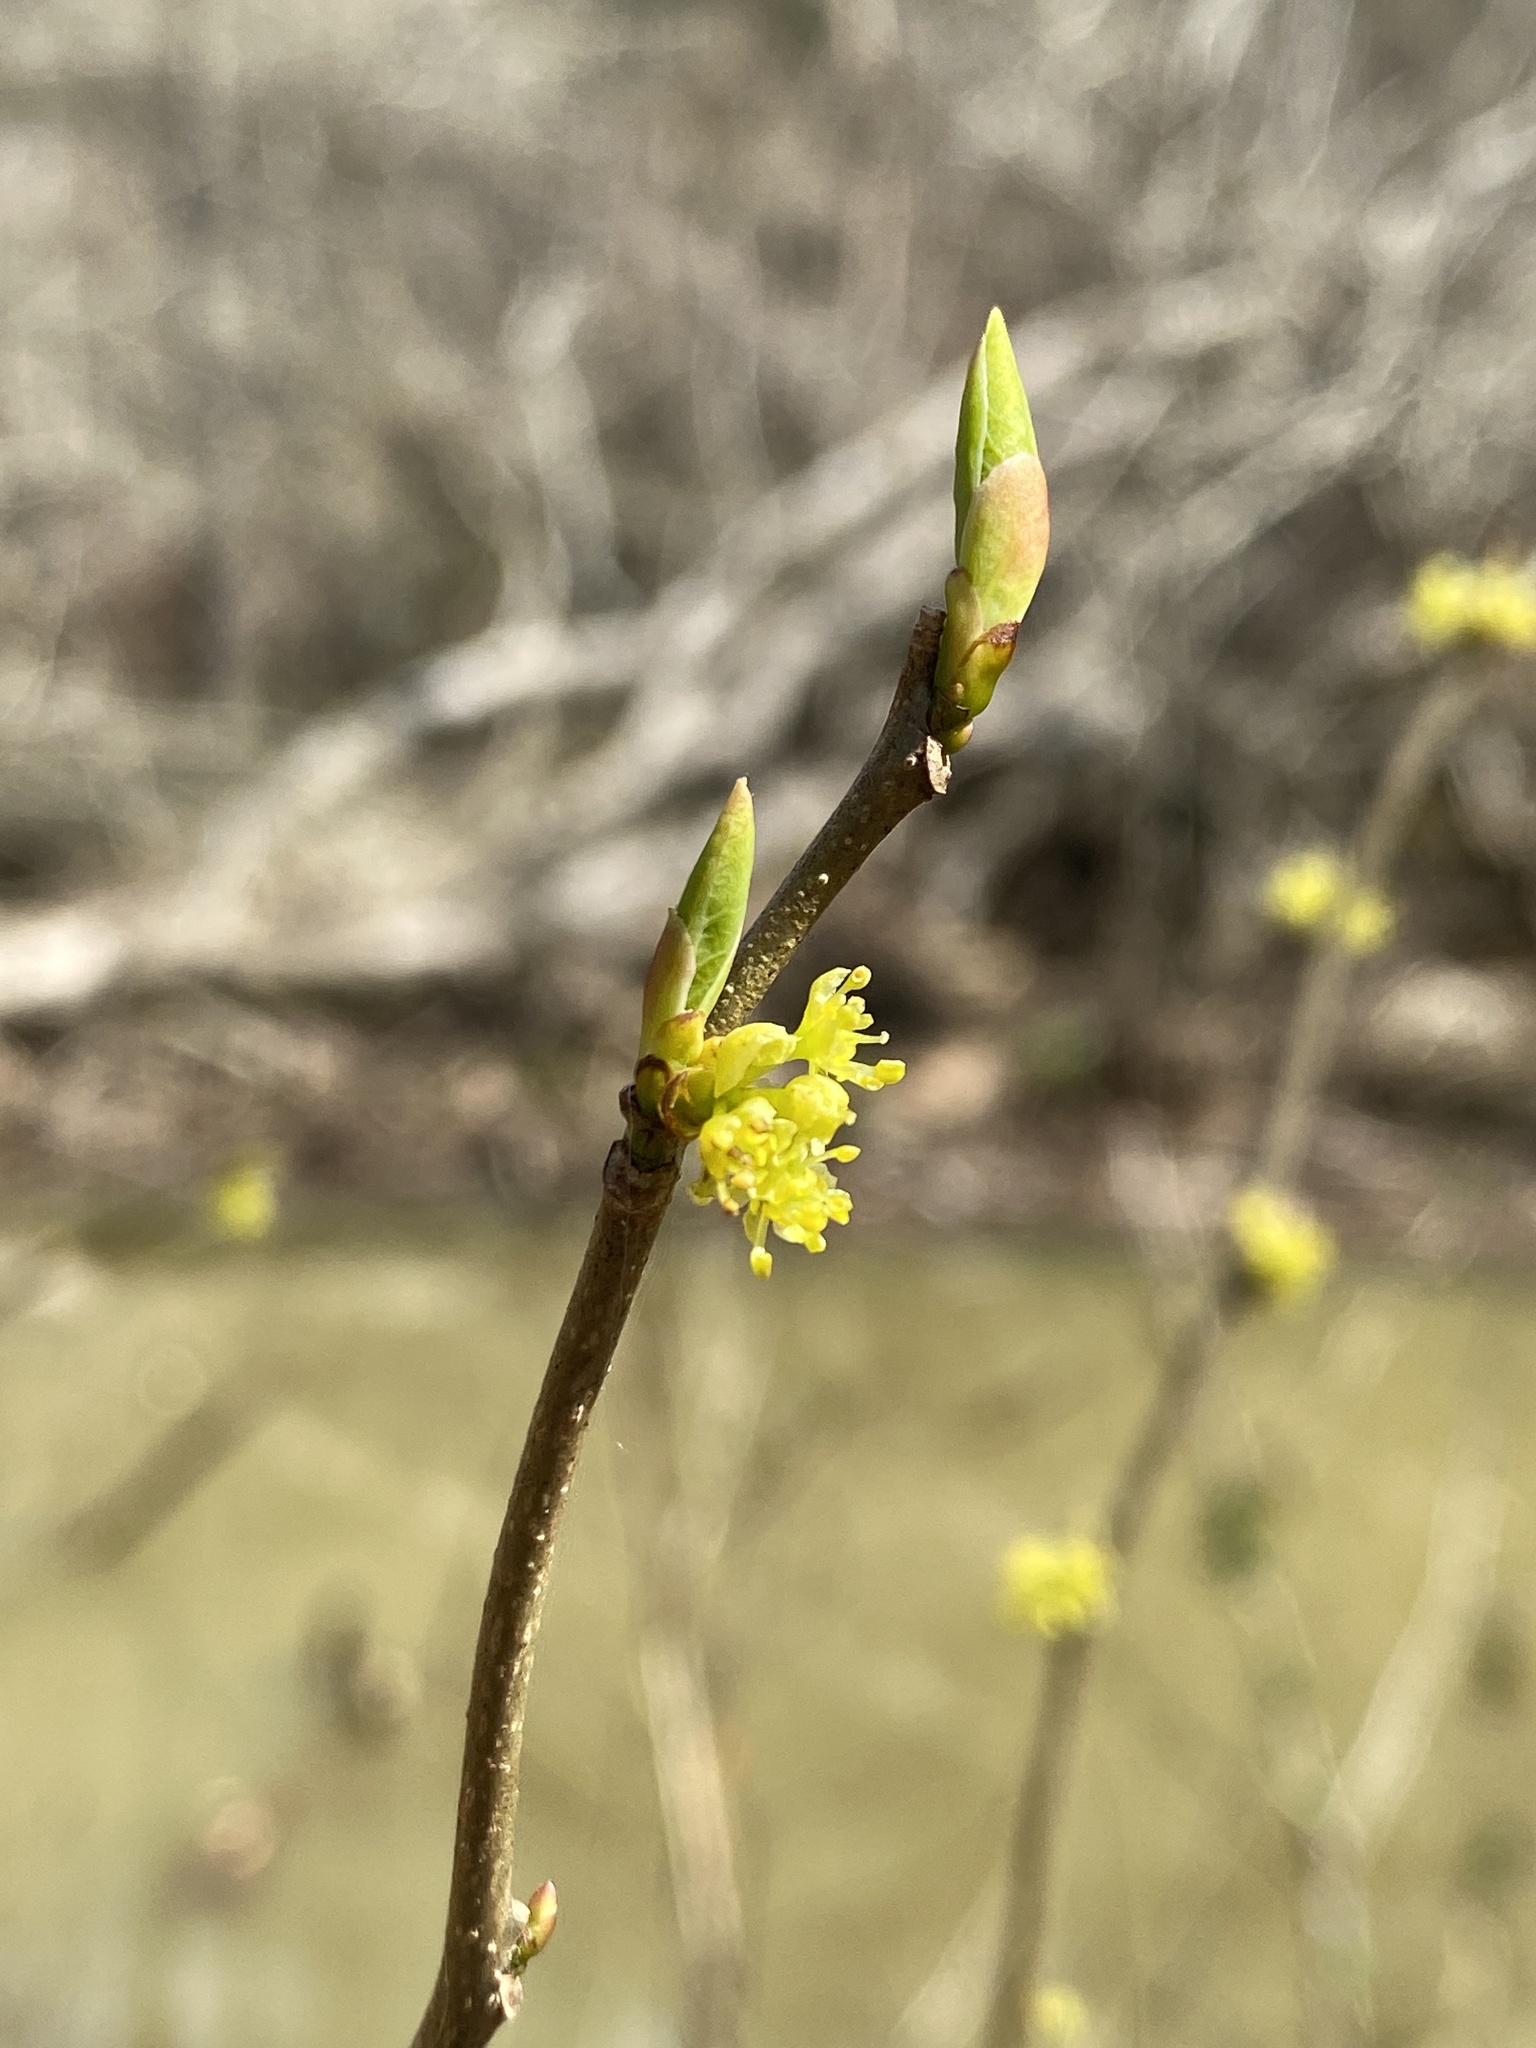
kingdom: Plantae
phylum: Tracheophyta
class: Magnoliopsida
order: Laurales
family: Lauraceae
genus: Lindera
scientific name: Lindera benzoin
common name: Spicebush
